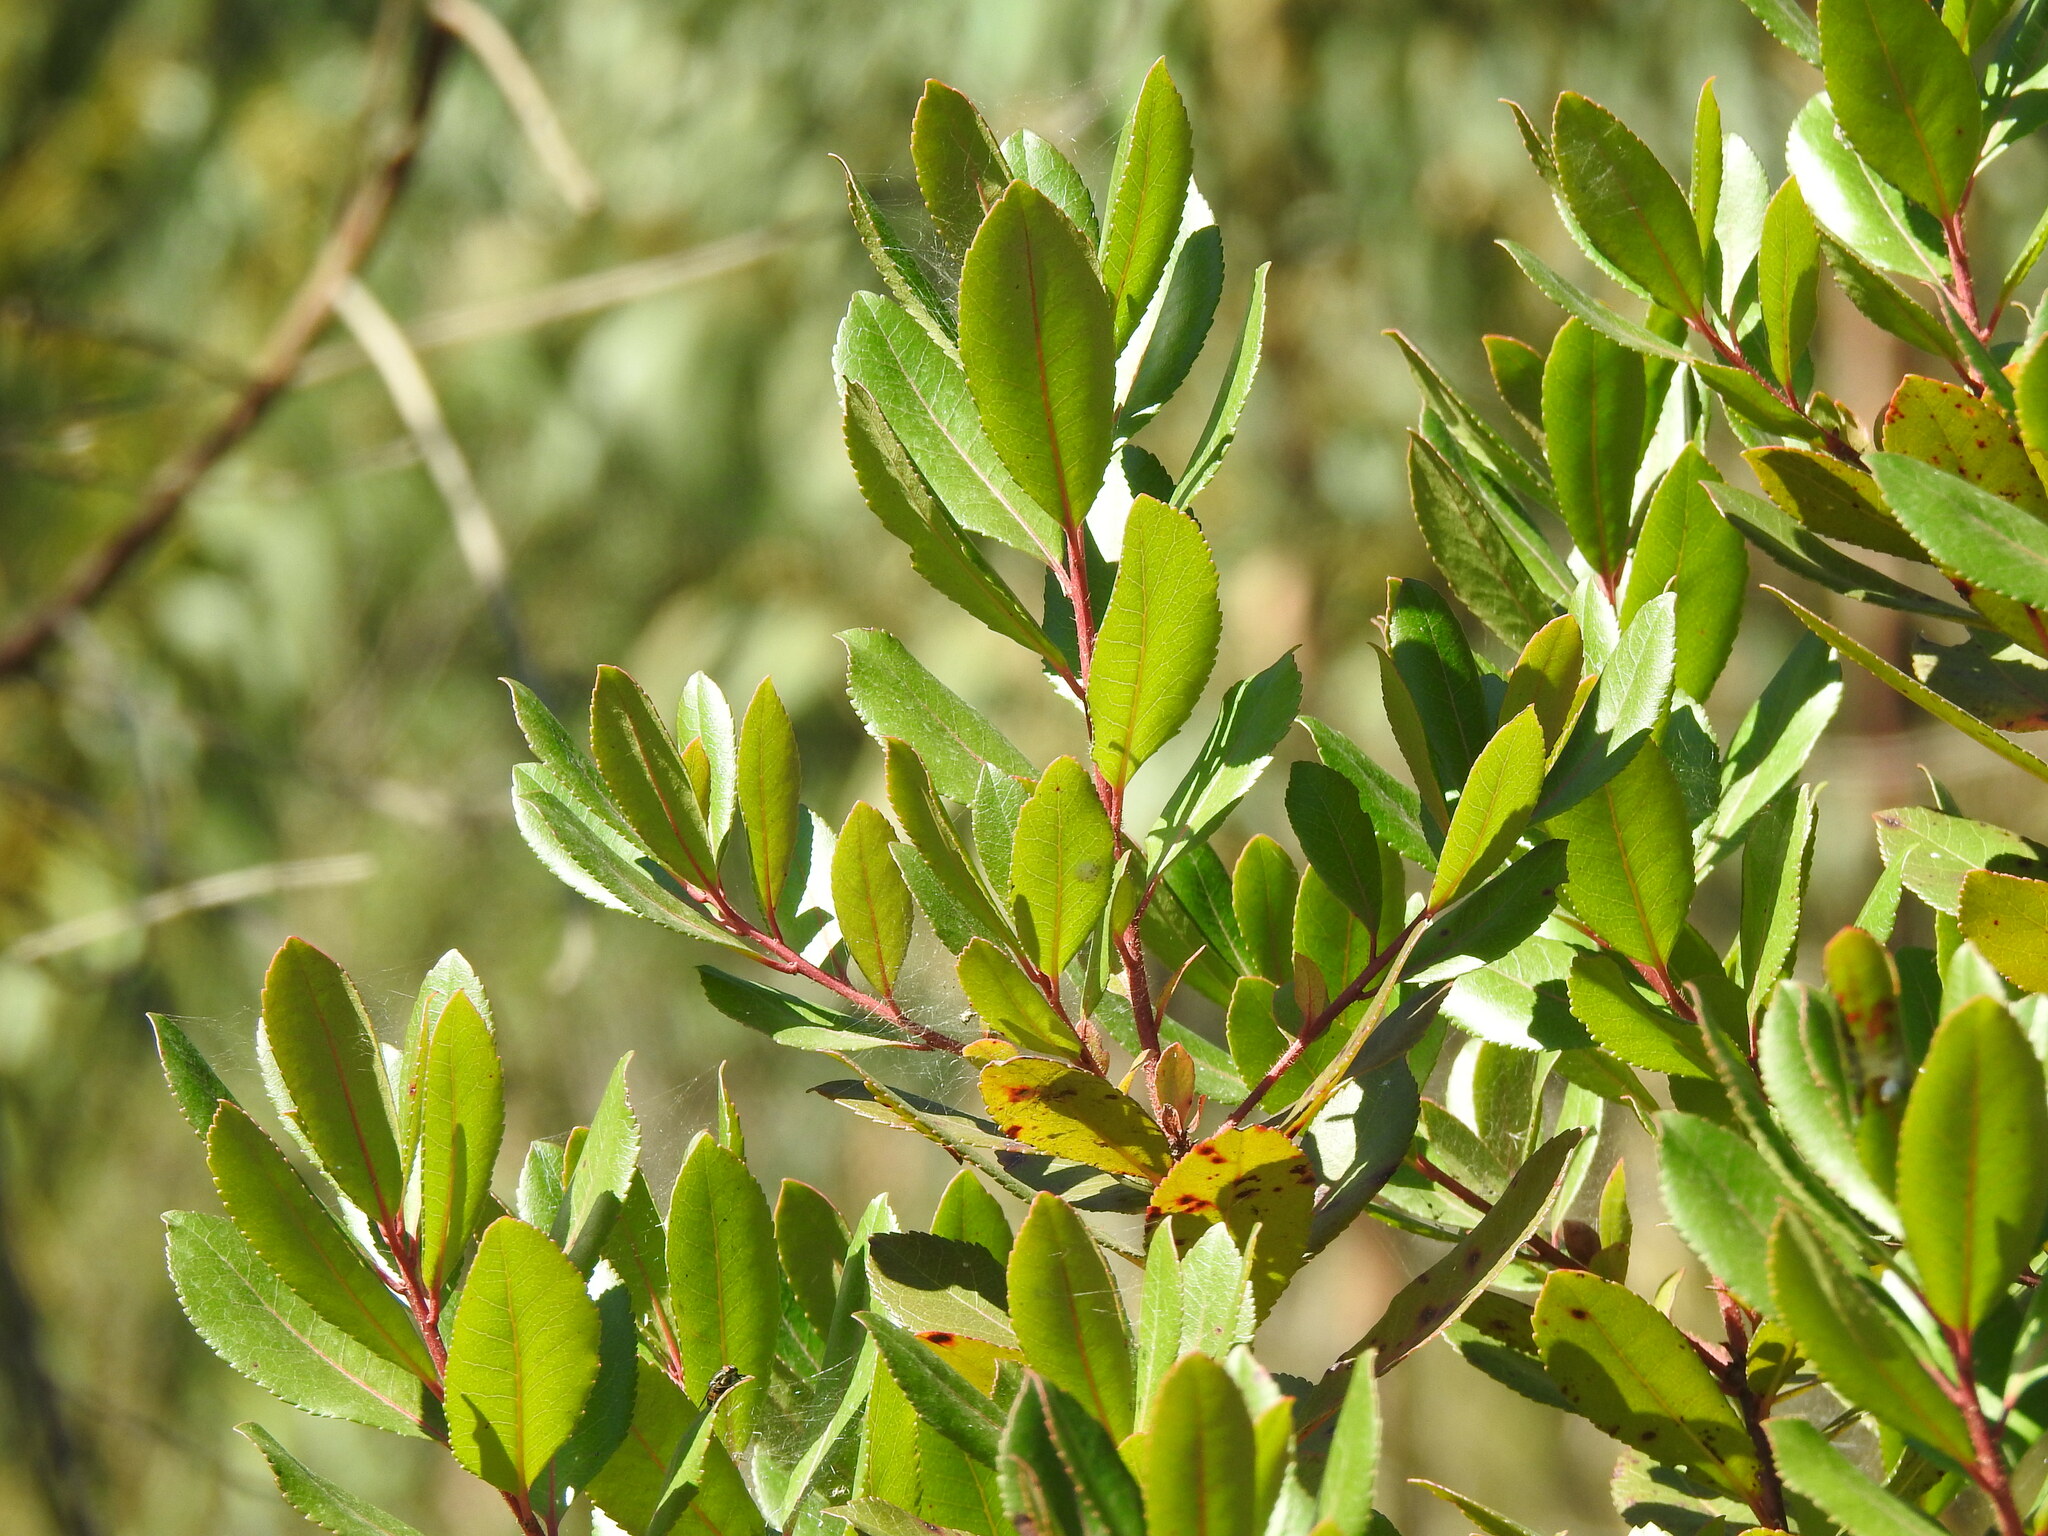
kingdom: Plantae
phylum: Tracheophyta
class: Magnoliopsida
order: Ericales
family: Ericaceae
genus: Arbutus
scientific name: Arbutus unedo
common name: Strawberry-tree
